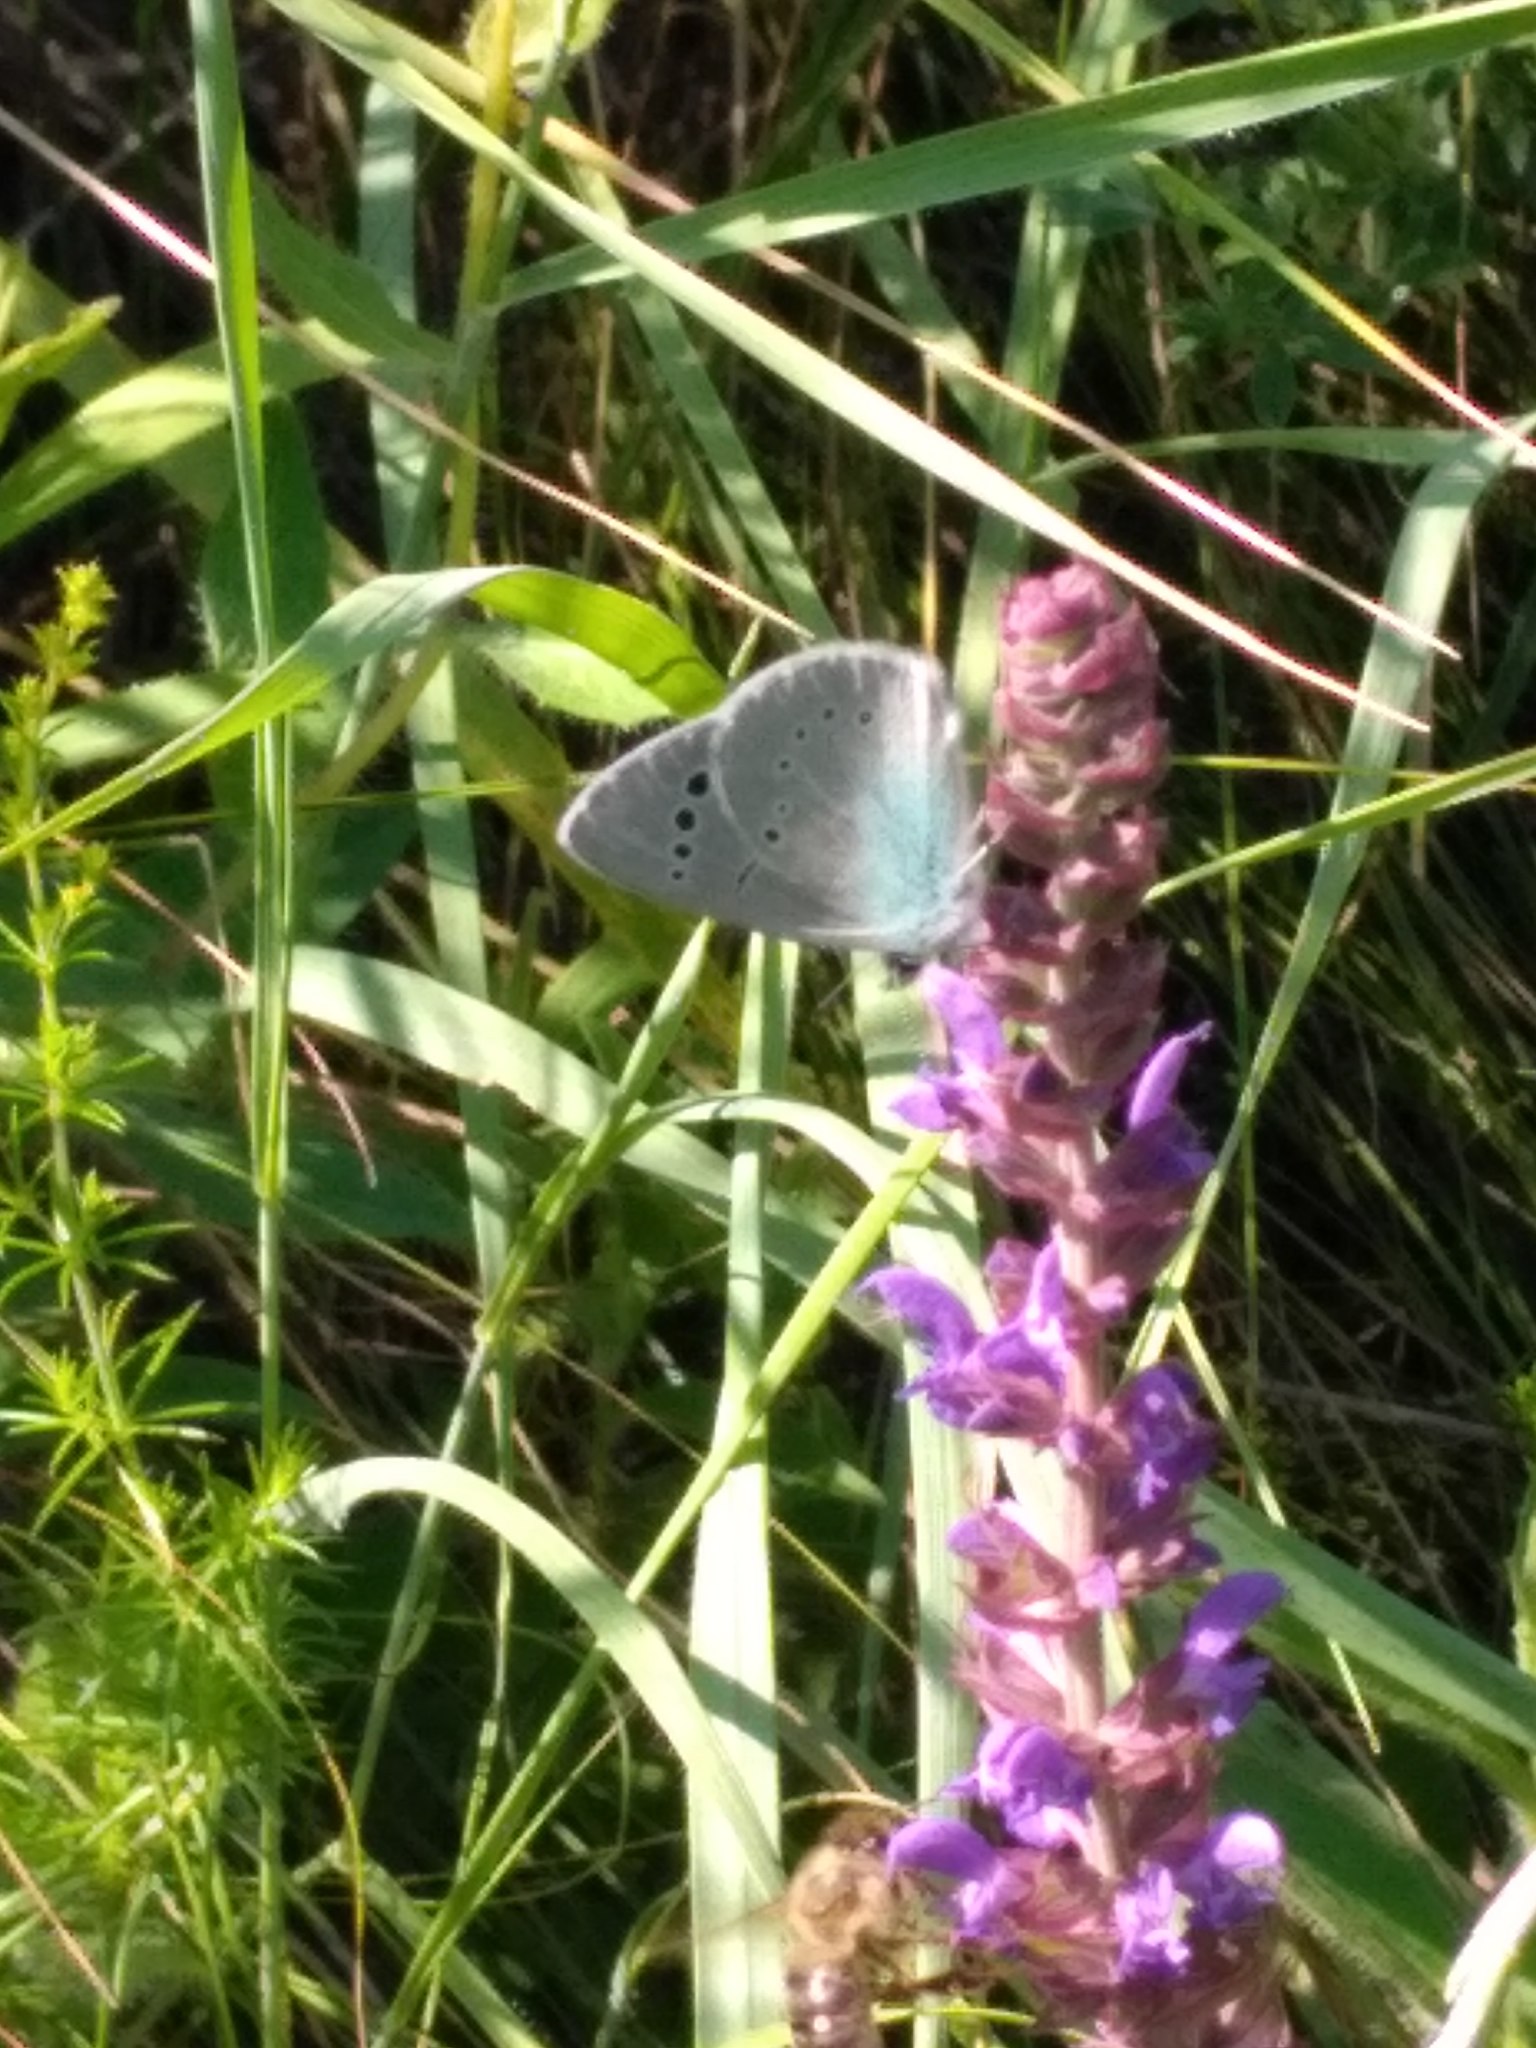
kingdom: Animalia
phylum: Arthropoda
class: Insecta
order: Lepidoptera
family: Lycaenidae
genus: Glaucopsyche
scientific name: Glaucopsyche alexis
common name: Green-underside blue
